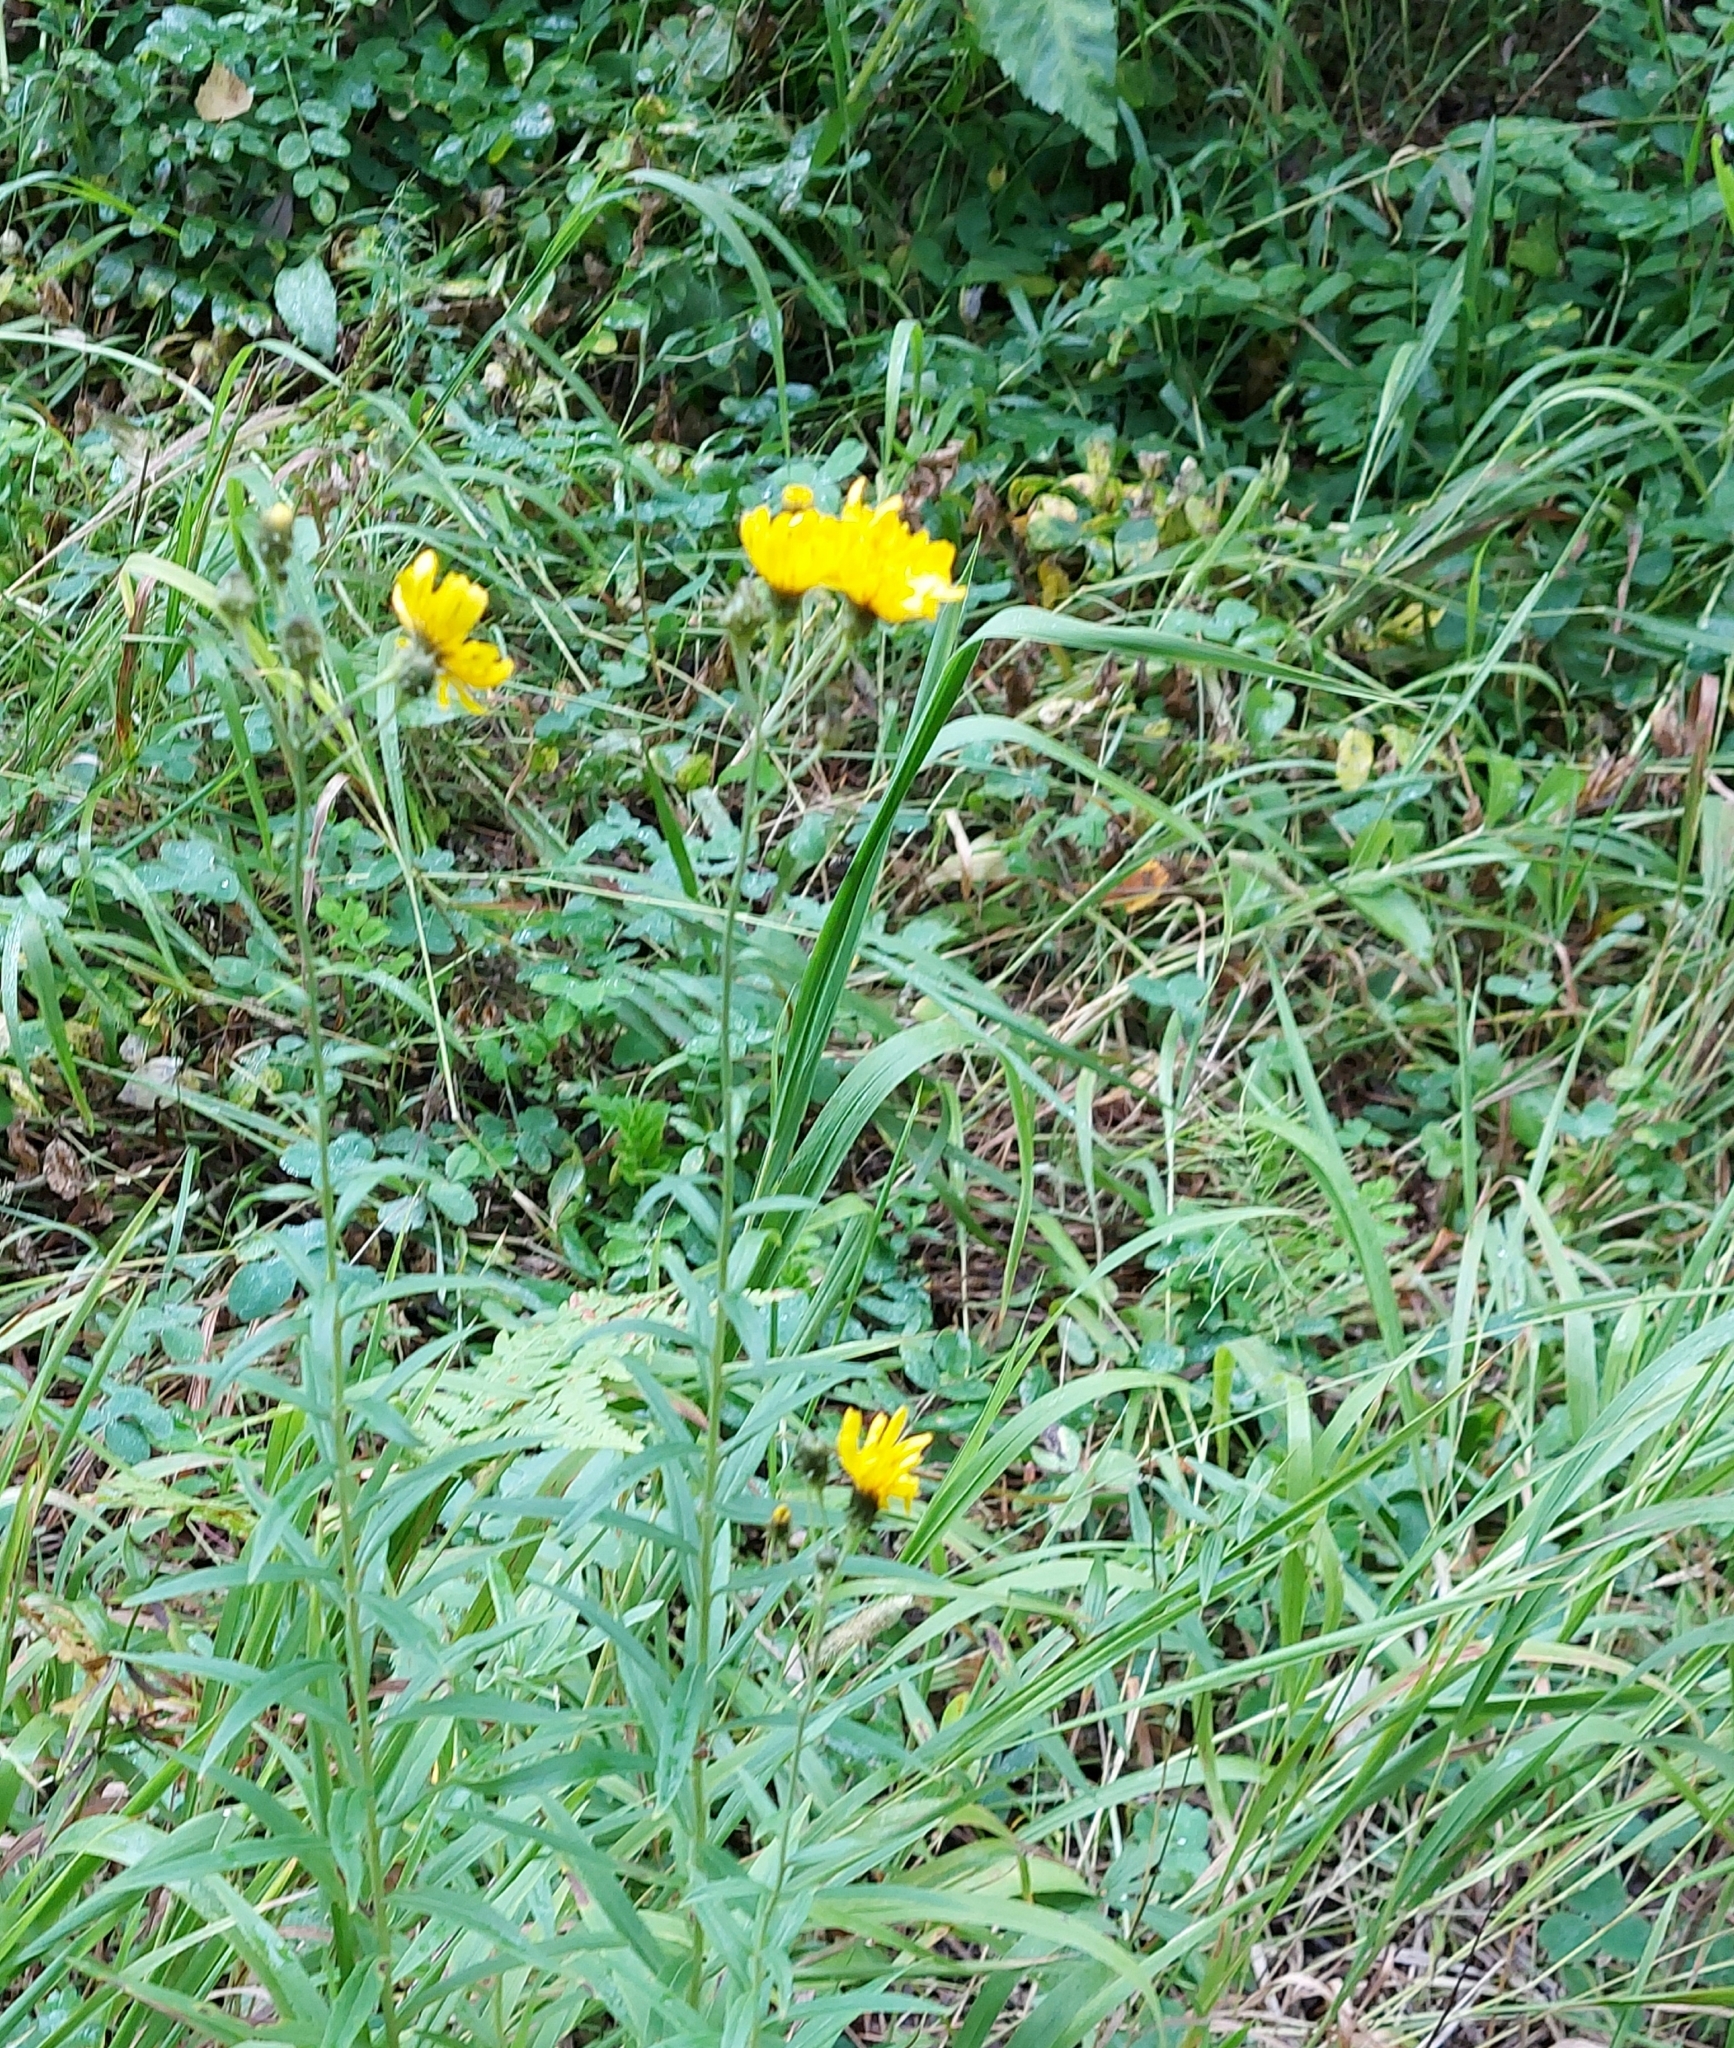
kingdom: Plantae
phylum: Tracheophyta
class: Magnoliopsida
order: Asterales
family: Asteraceae
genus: Hieracium
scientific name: Hieracium umbellatum
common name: Northern hawkweed
